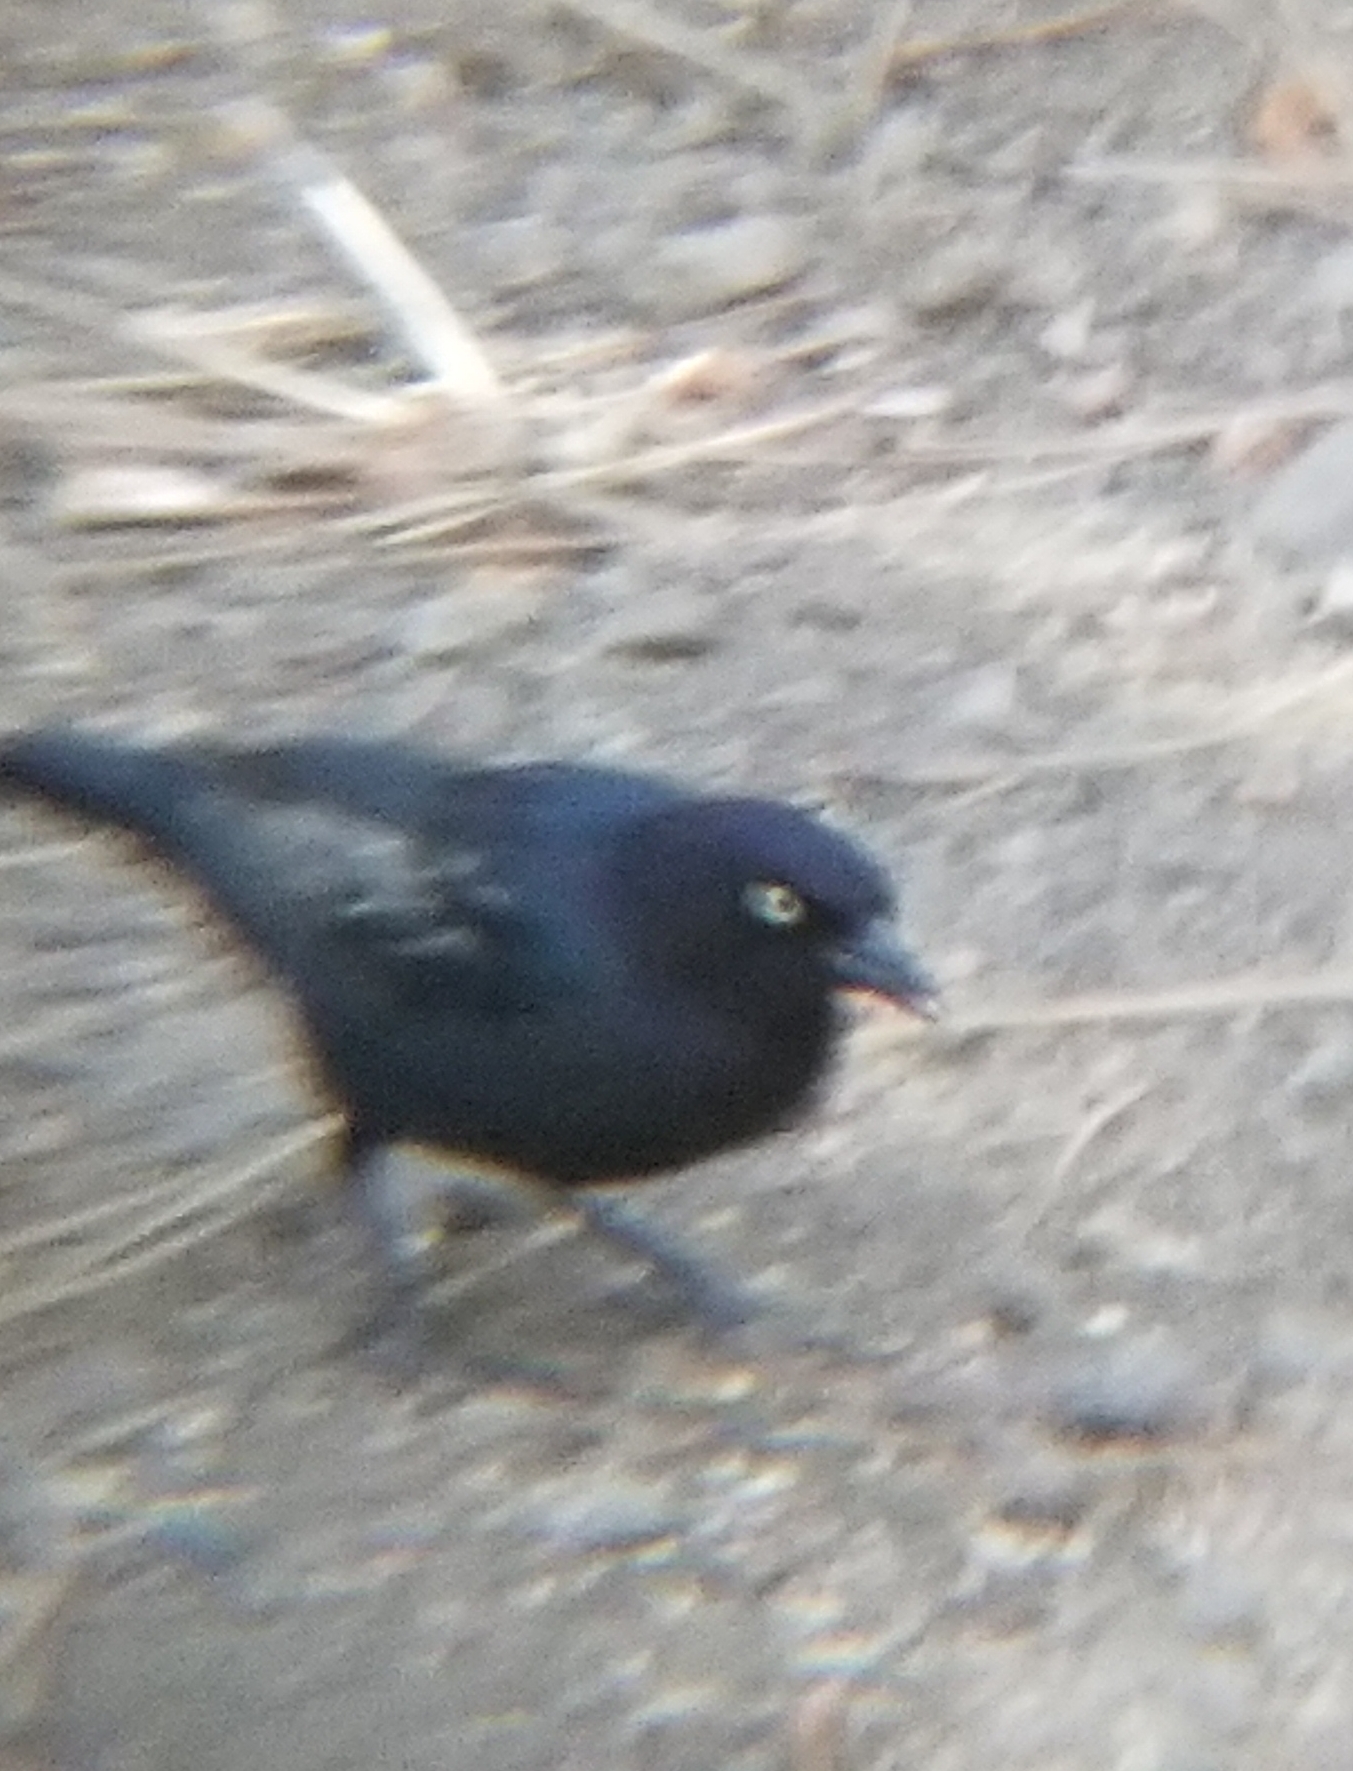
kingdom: Animalia
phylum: Chordata
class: Aves
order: Passeriformes
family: Icteridae
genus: Euphagus
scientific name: Euphagus cyanocephalus
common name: Brewer's blackbird
